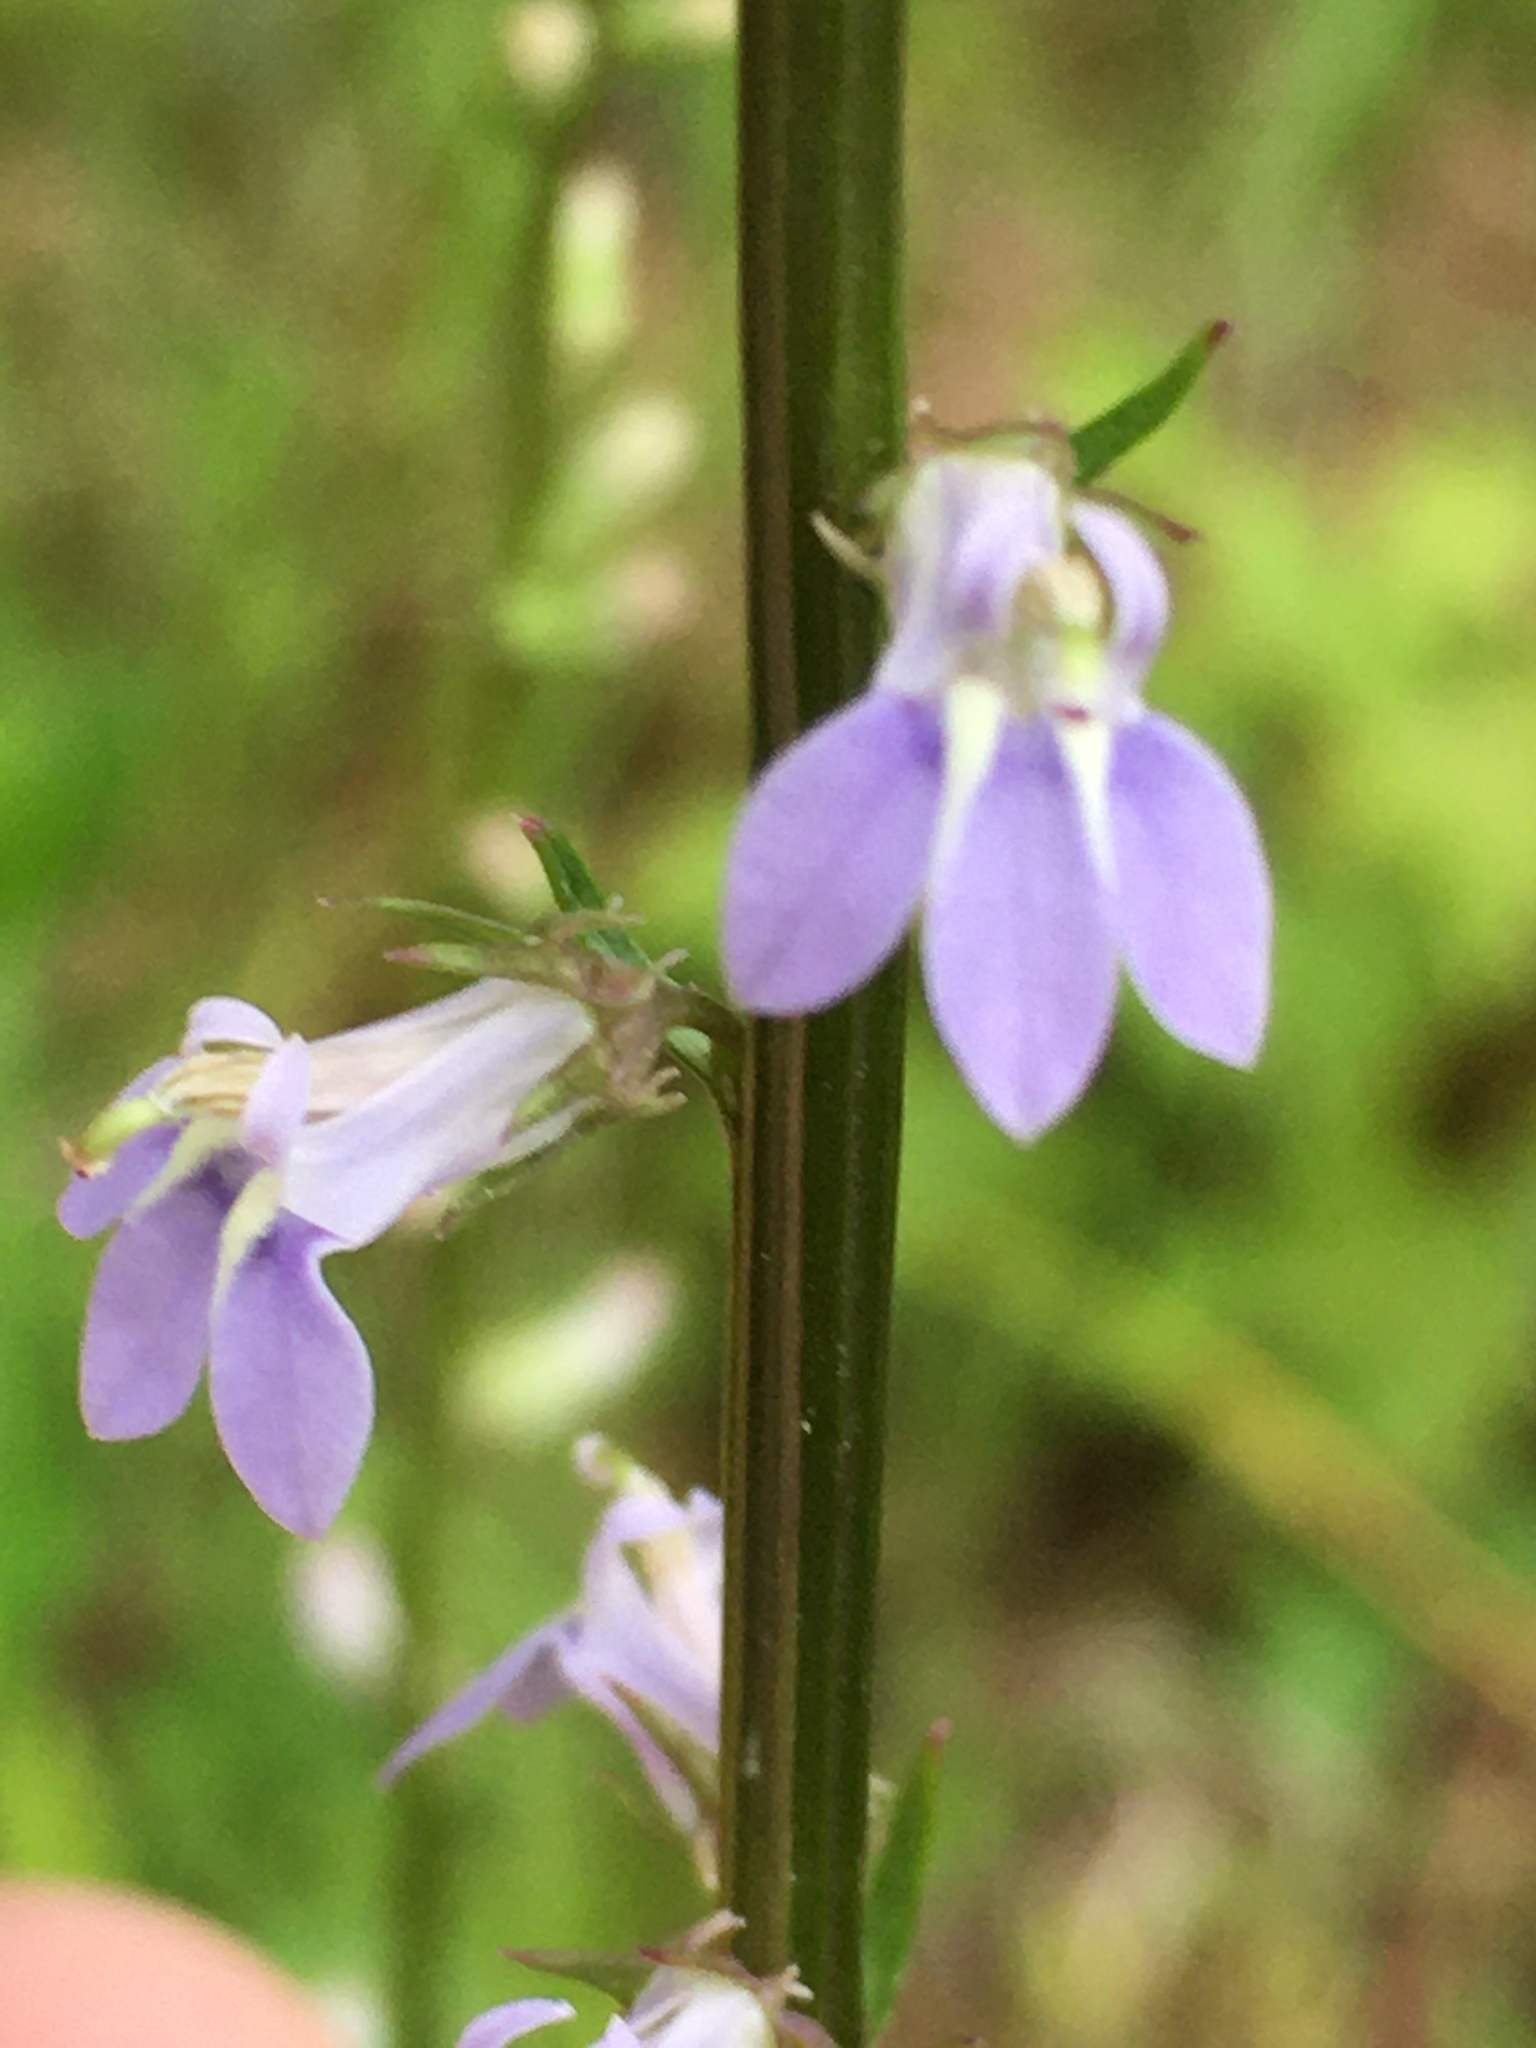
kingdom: Plantae
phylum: Tracheophyta
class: Magnoliopsida
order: Asterales
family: Campanulaceae
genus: Lobelia
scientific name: Lobelia spicata
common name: Pale-spike lobelia
